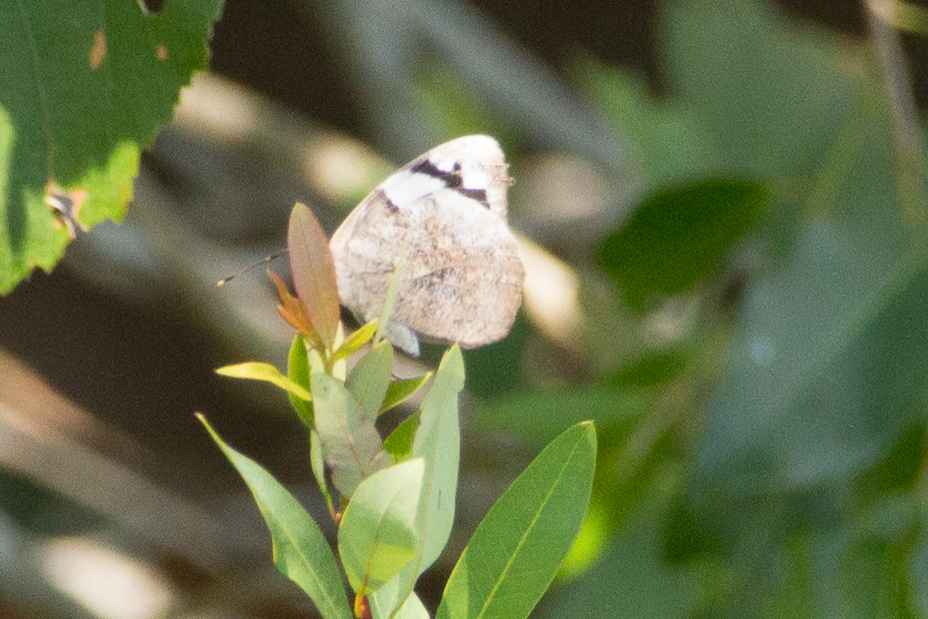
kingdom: Animalia
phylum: Arthropoda
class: Insecta
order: Lepidoptera
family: Nymphalidae
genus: Eunica
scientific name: Eunica eburnea
